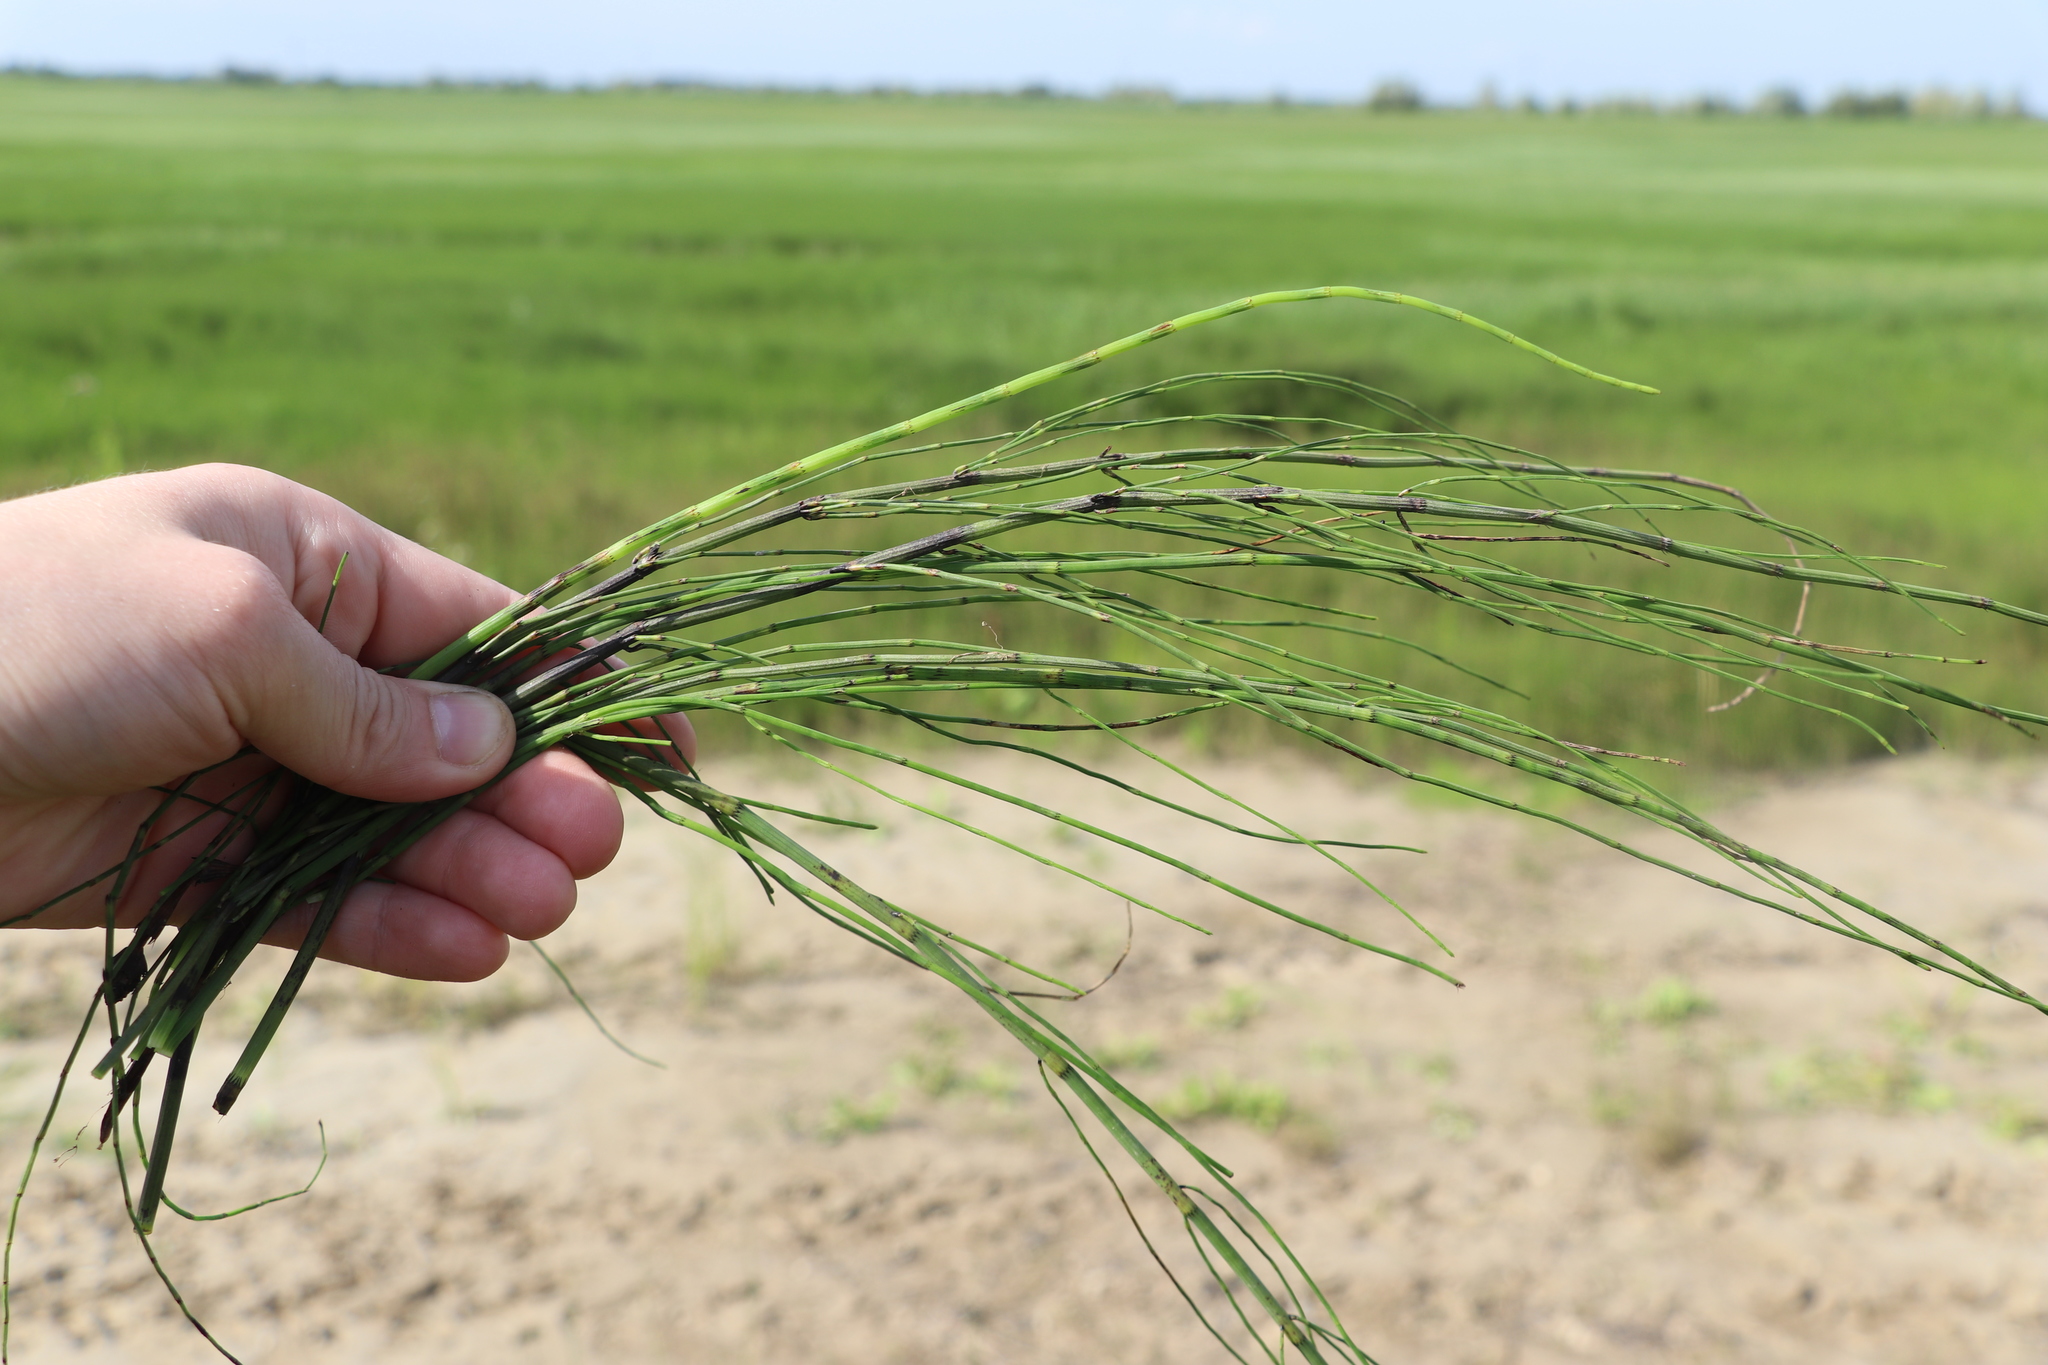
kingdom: Plantae
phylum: Tracheophyta
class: Polypodiopsida
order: Equisetales
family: Equisetaceae
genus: Equisetum
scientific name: Equisetum fluviatile
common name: Water horsetail
